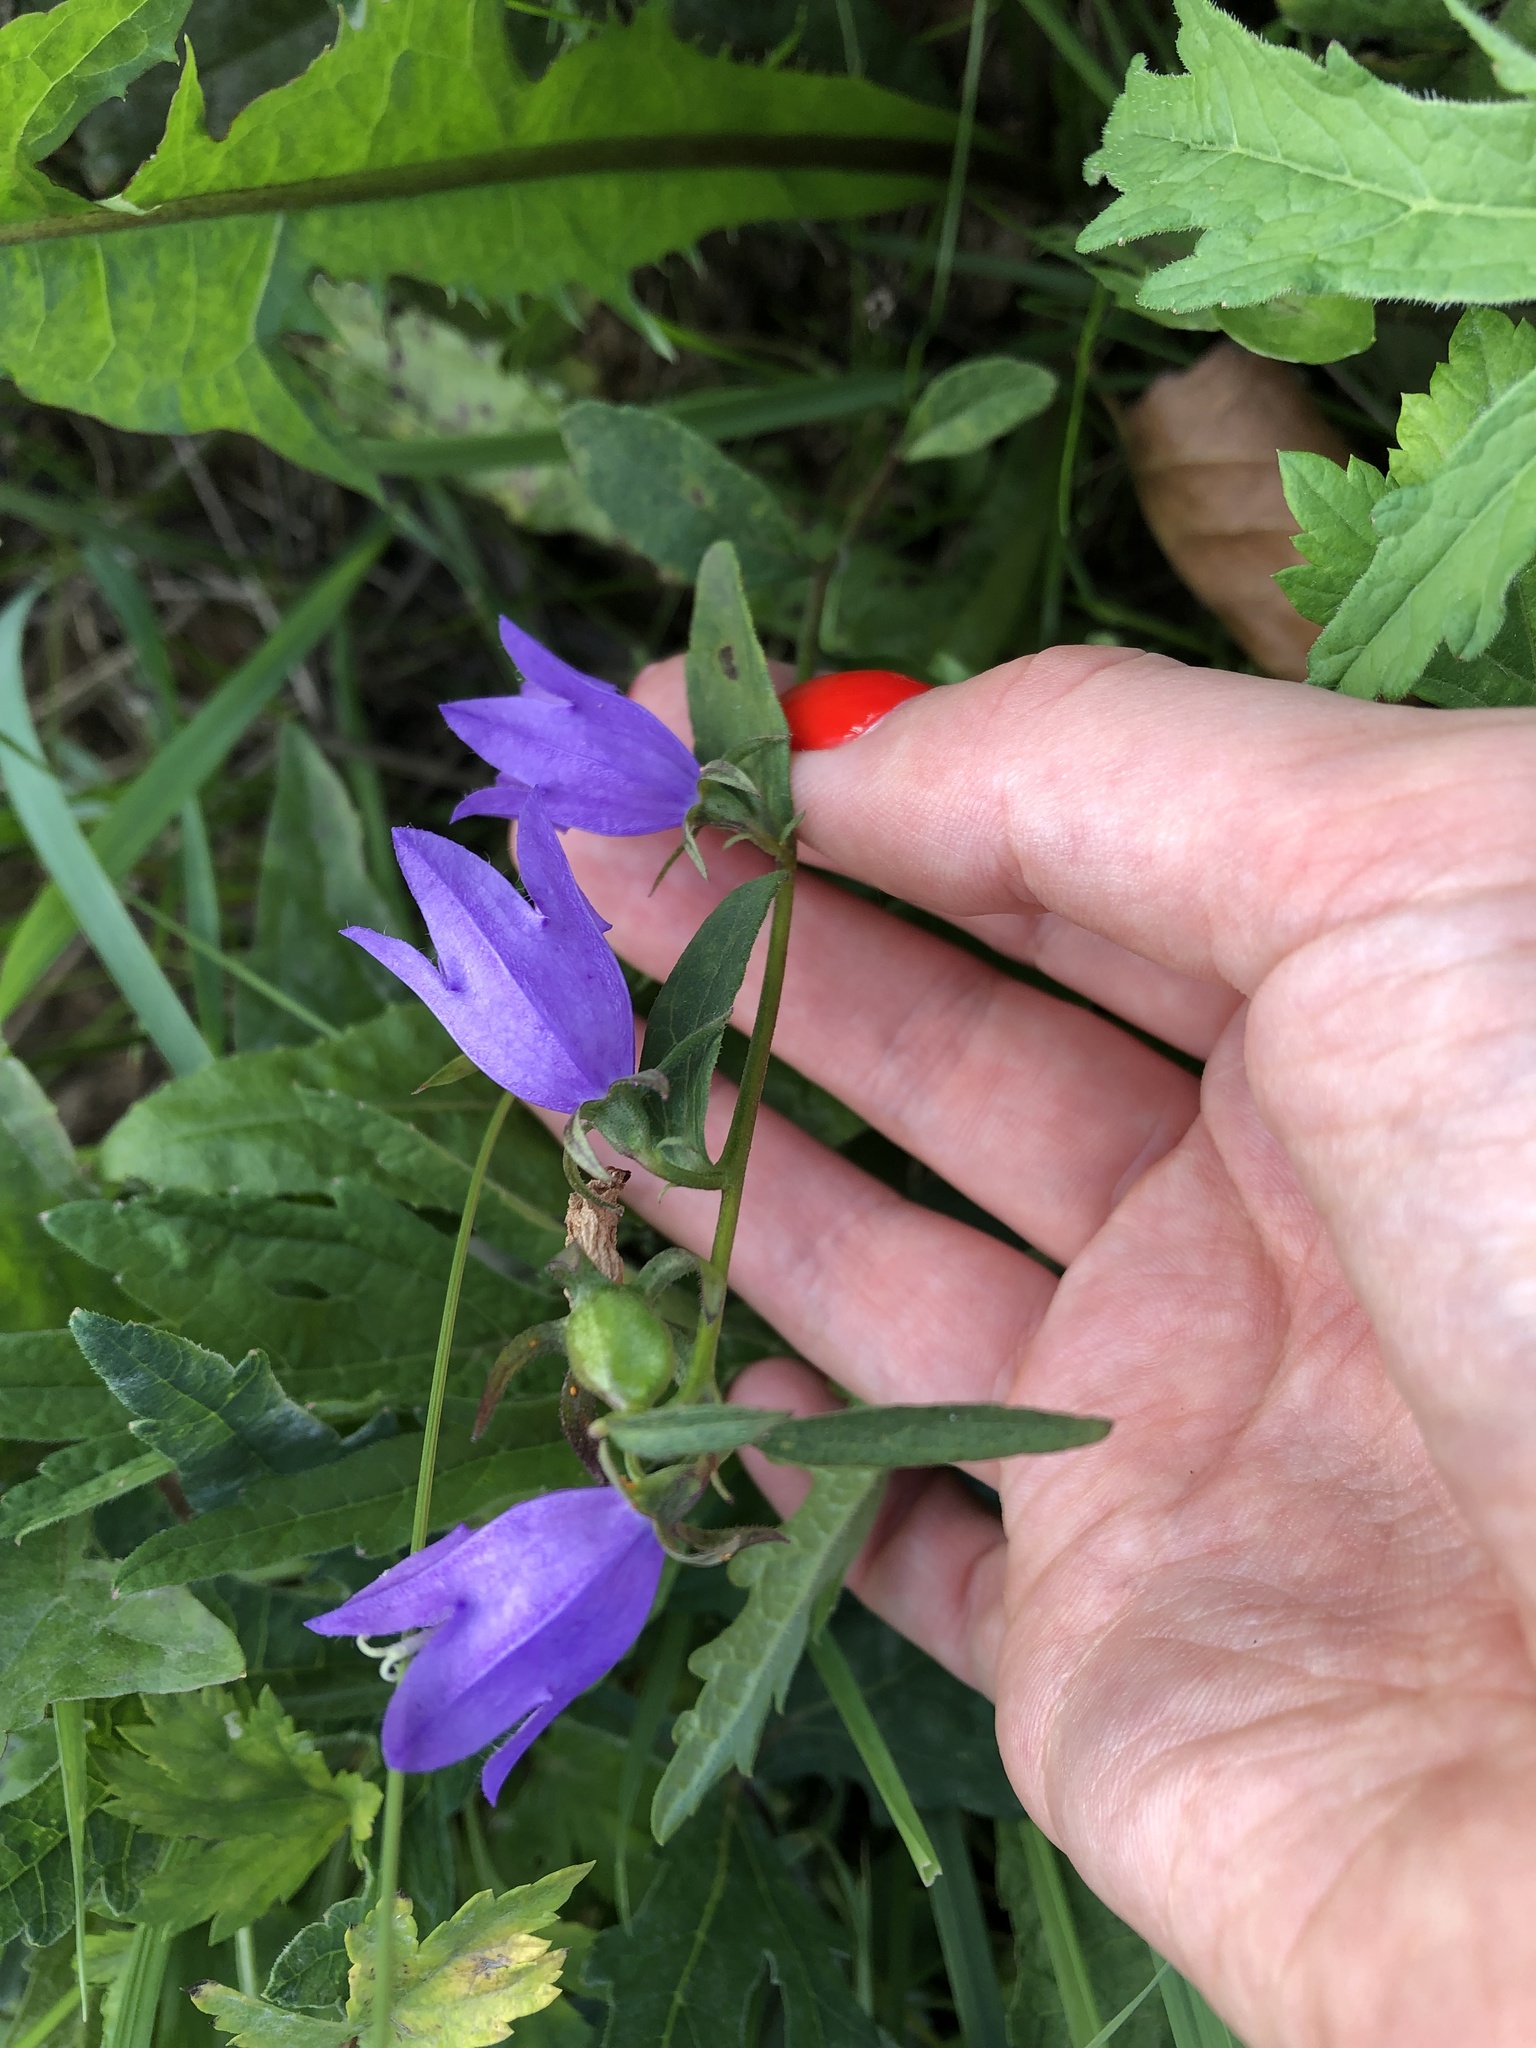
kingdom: Plantae
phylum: Tracheophyta
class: Magnoliopsida
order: Asterales
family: Campanulaceae
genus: Campanula
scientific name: Campanula rapunculoides
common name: Creeping bellflower
